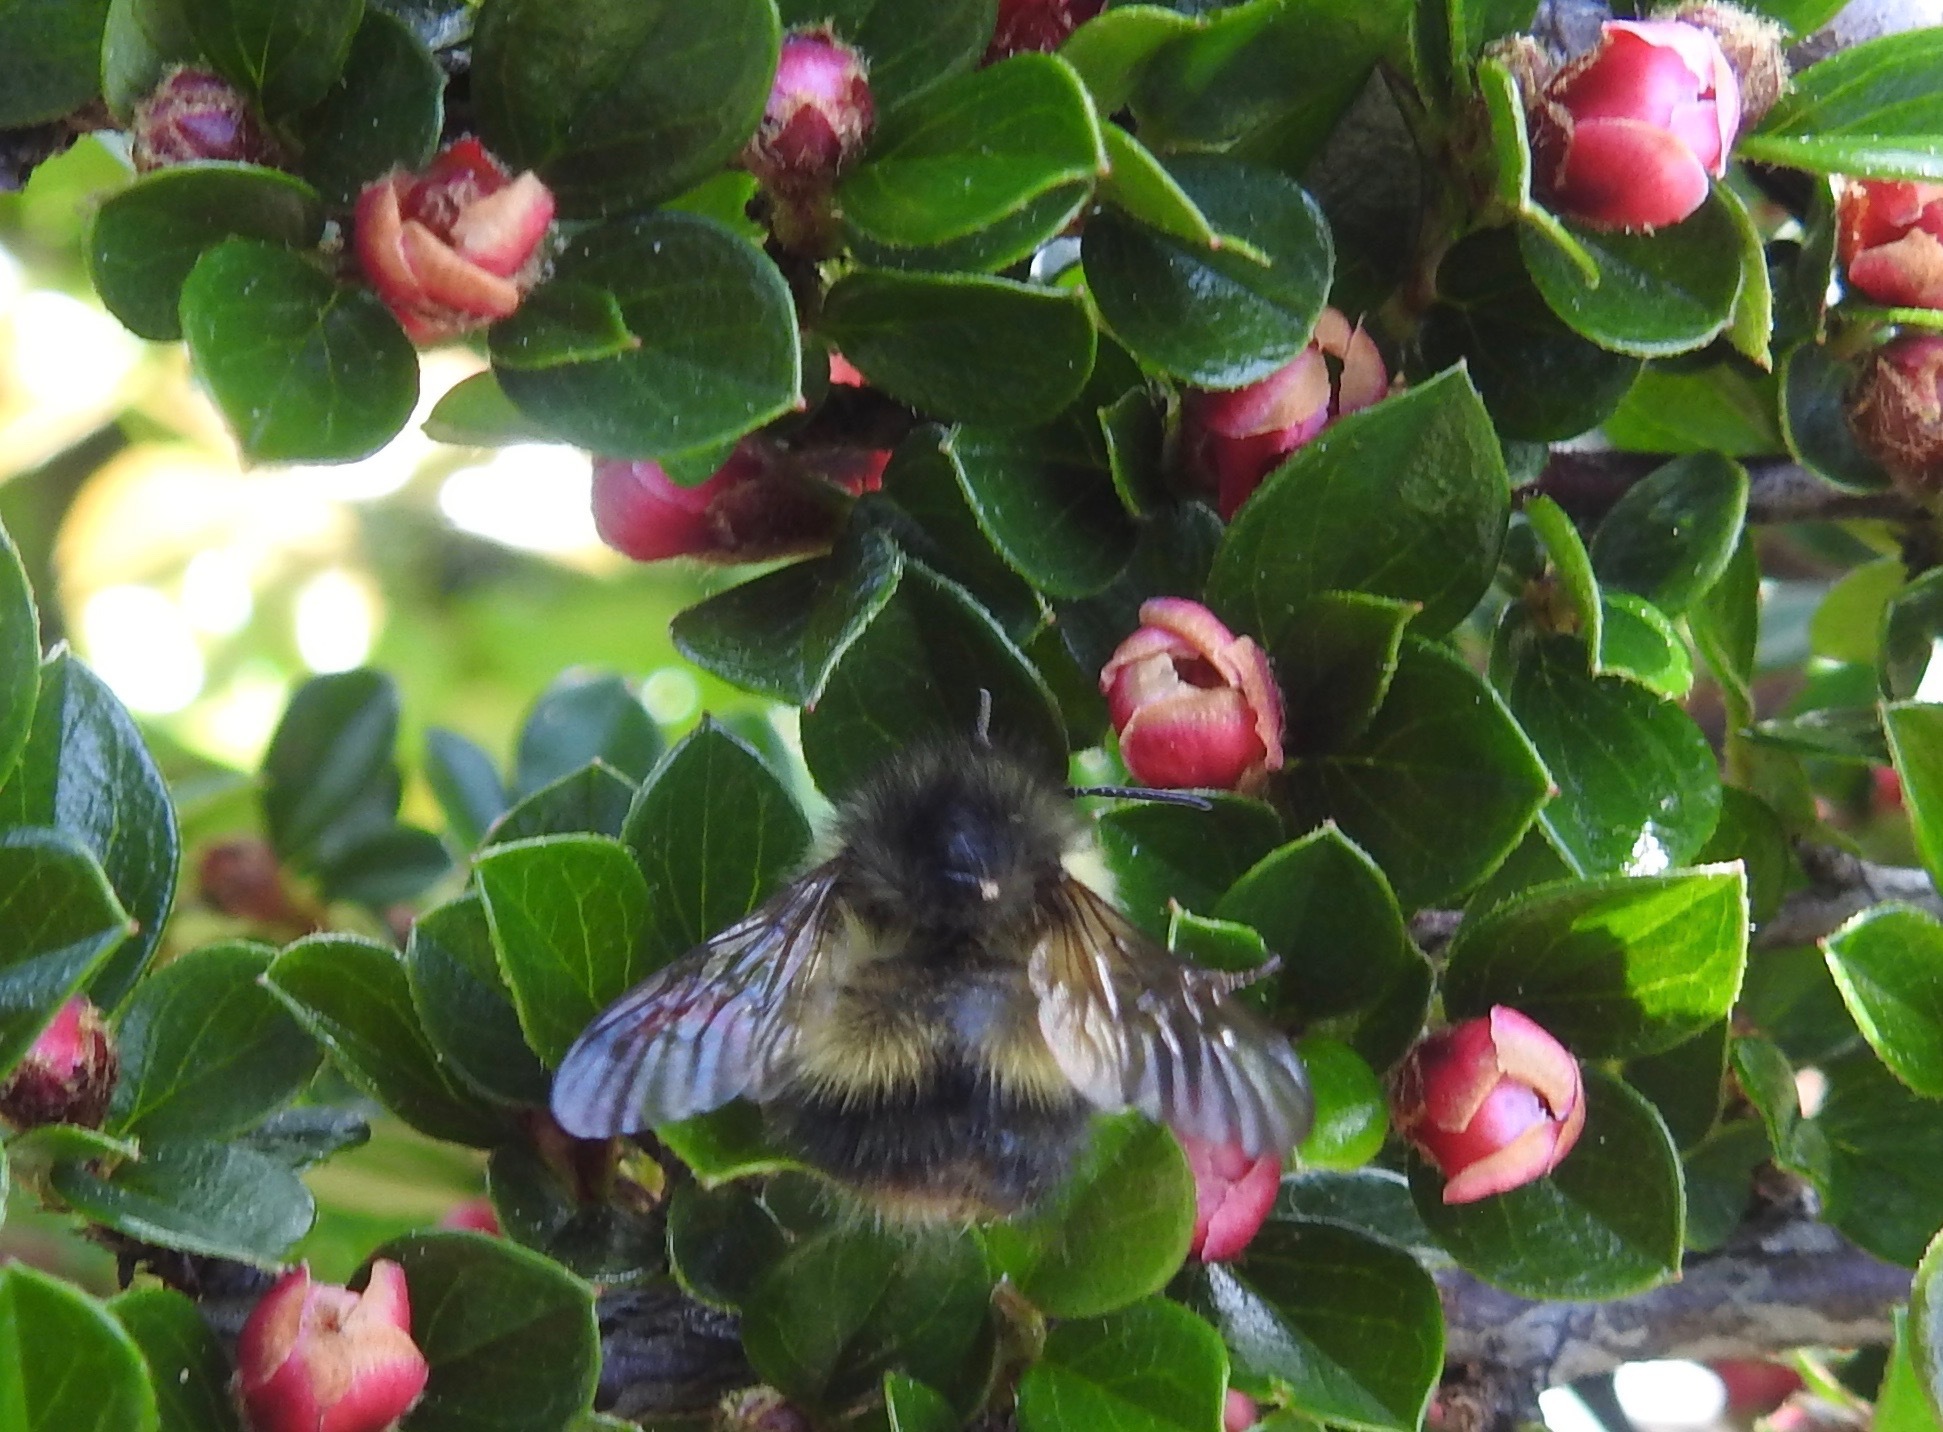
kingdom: Animalia
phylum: Arthropoda
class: Insecta
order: Hymenoptera
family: Apidae
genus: Bombus
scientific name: Bombus sitkensis
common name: Sitka bumble bee
